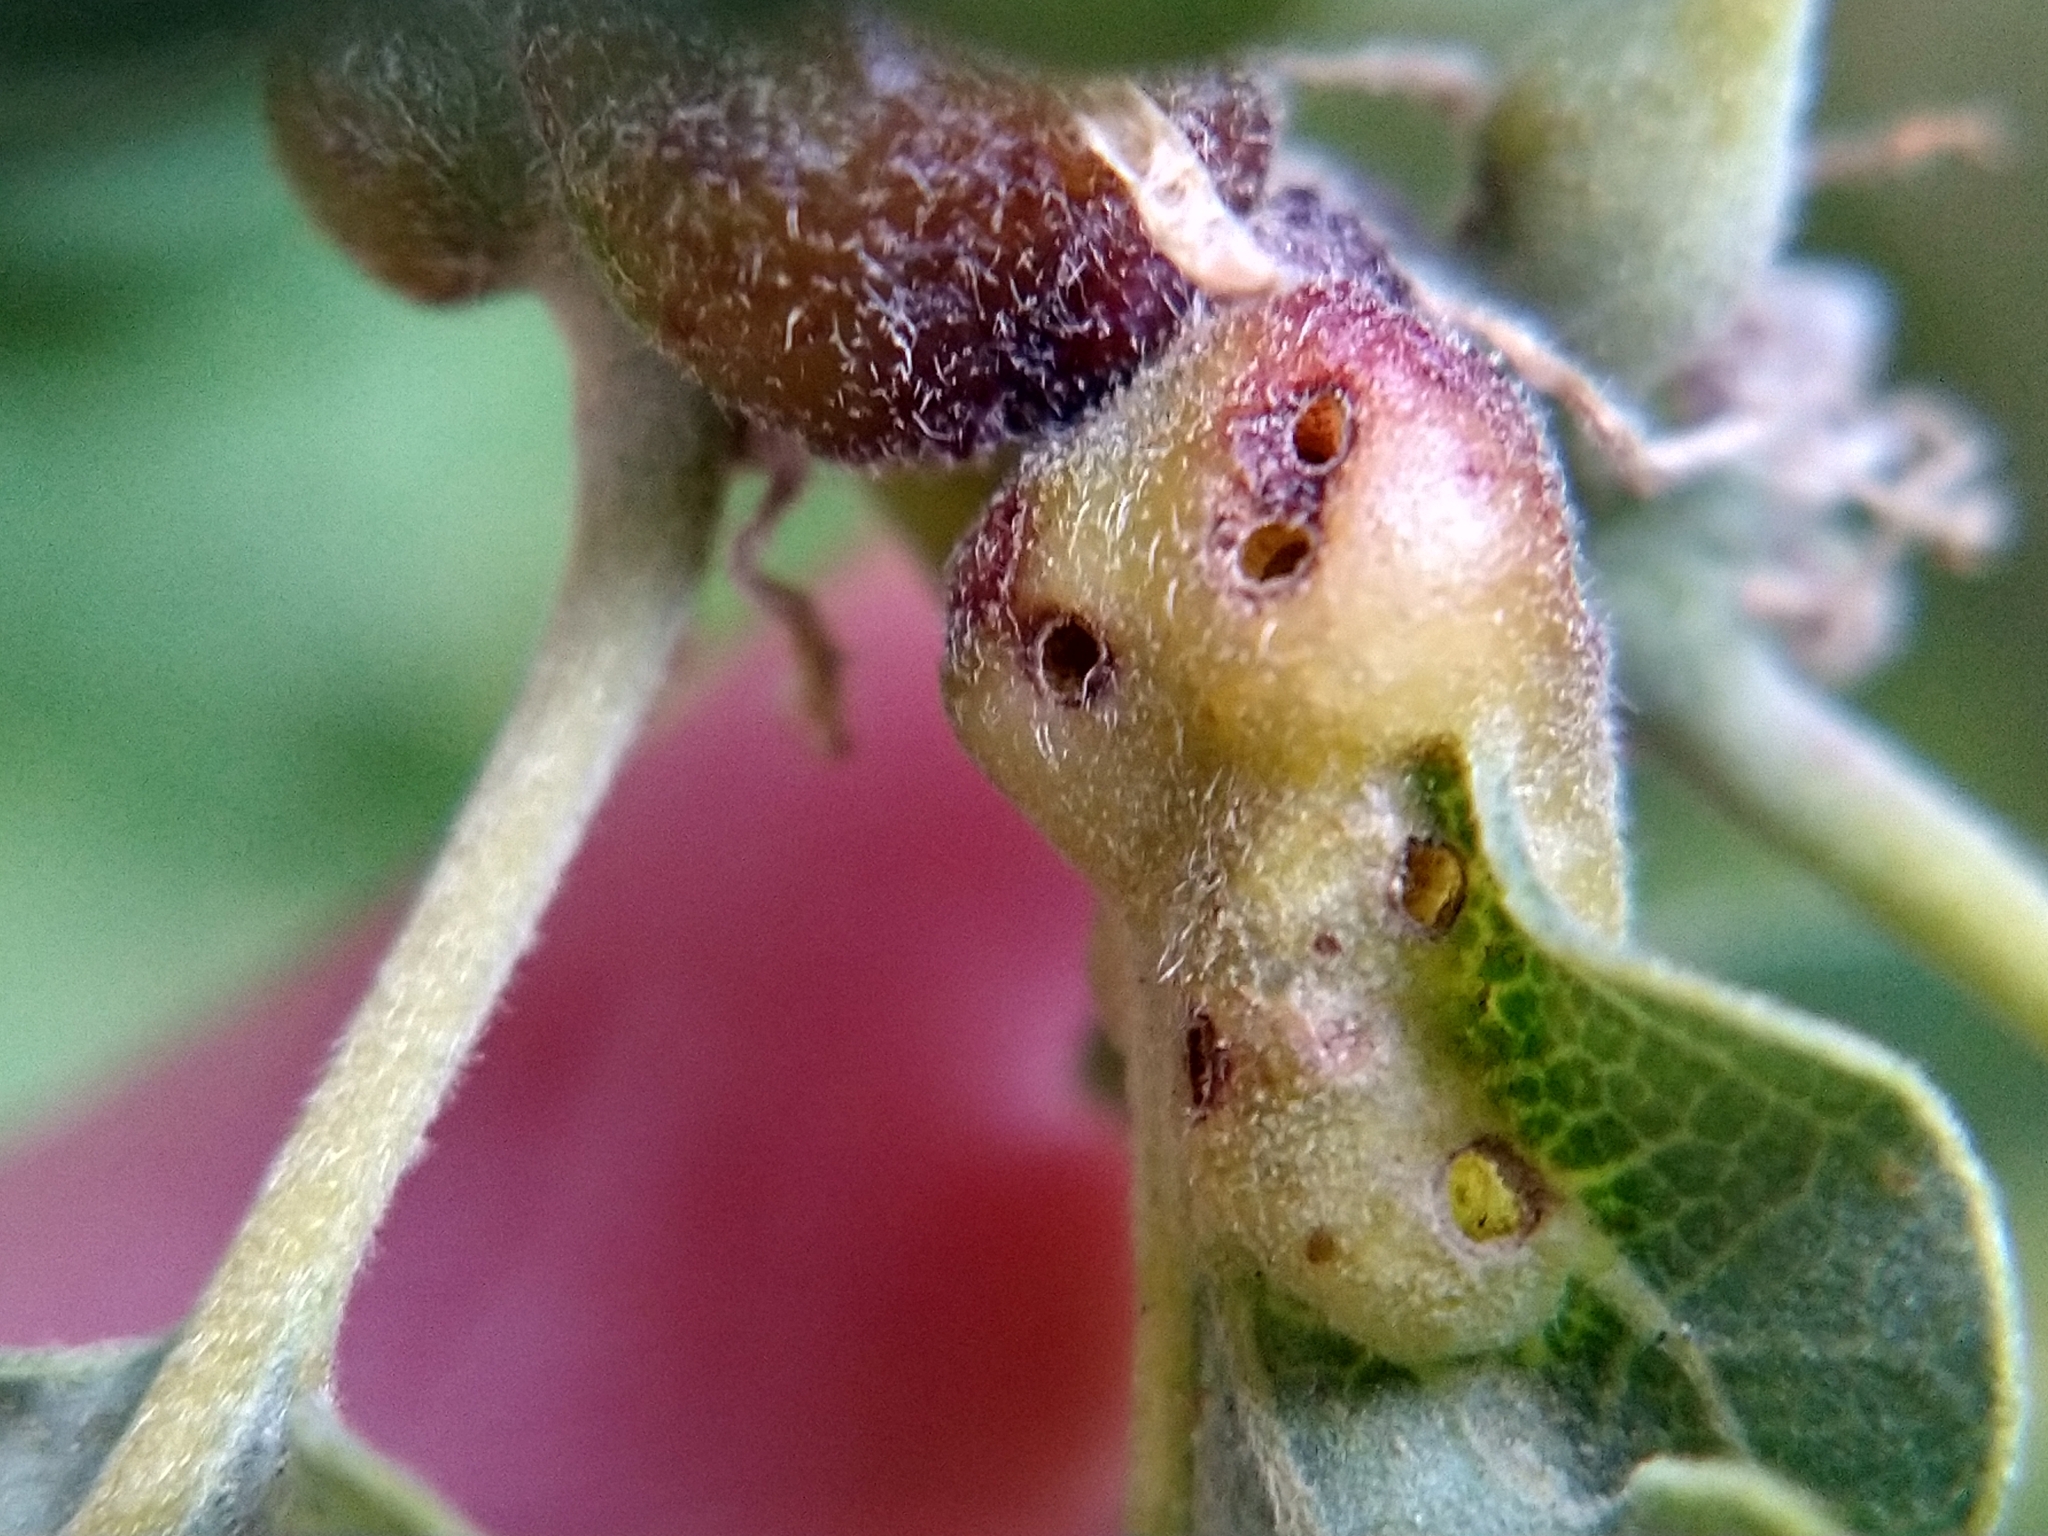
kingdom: Animalia
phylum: Arthropoda
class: Insecta
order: Hymenoptera
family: Cynipidae
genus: Neuroterus
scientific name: Neuroterus
